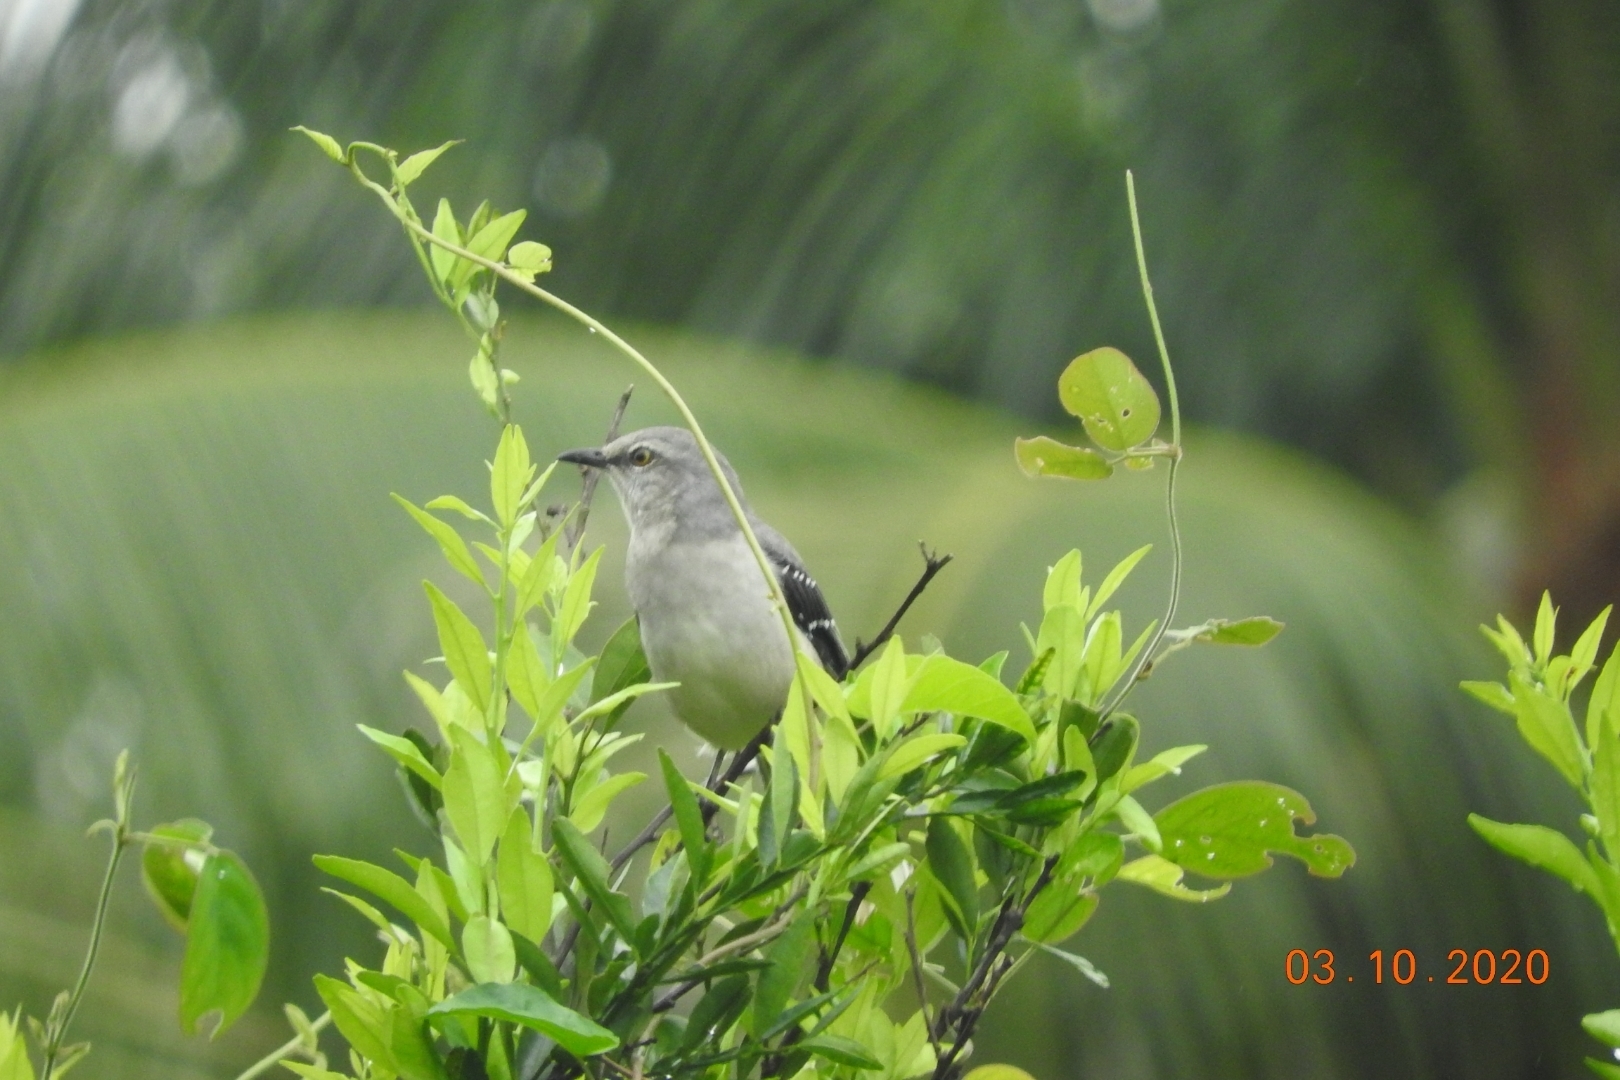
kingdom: Animalia
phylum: Chordata
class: Aves
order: Passeriformes
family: Mimidae
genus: Mimus
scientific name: Mimus gilvus
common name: Tropical mockingbird
